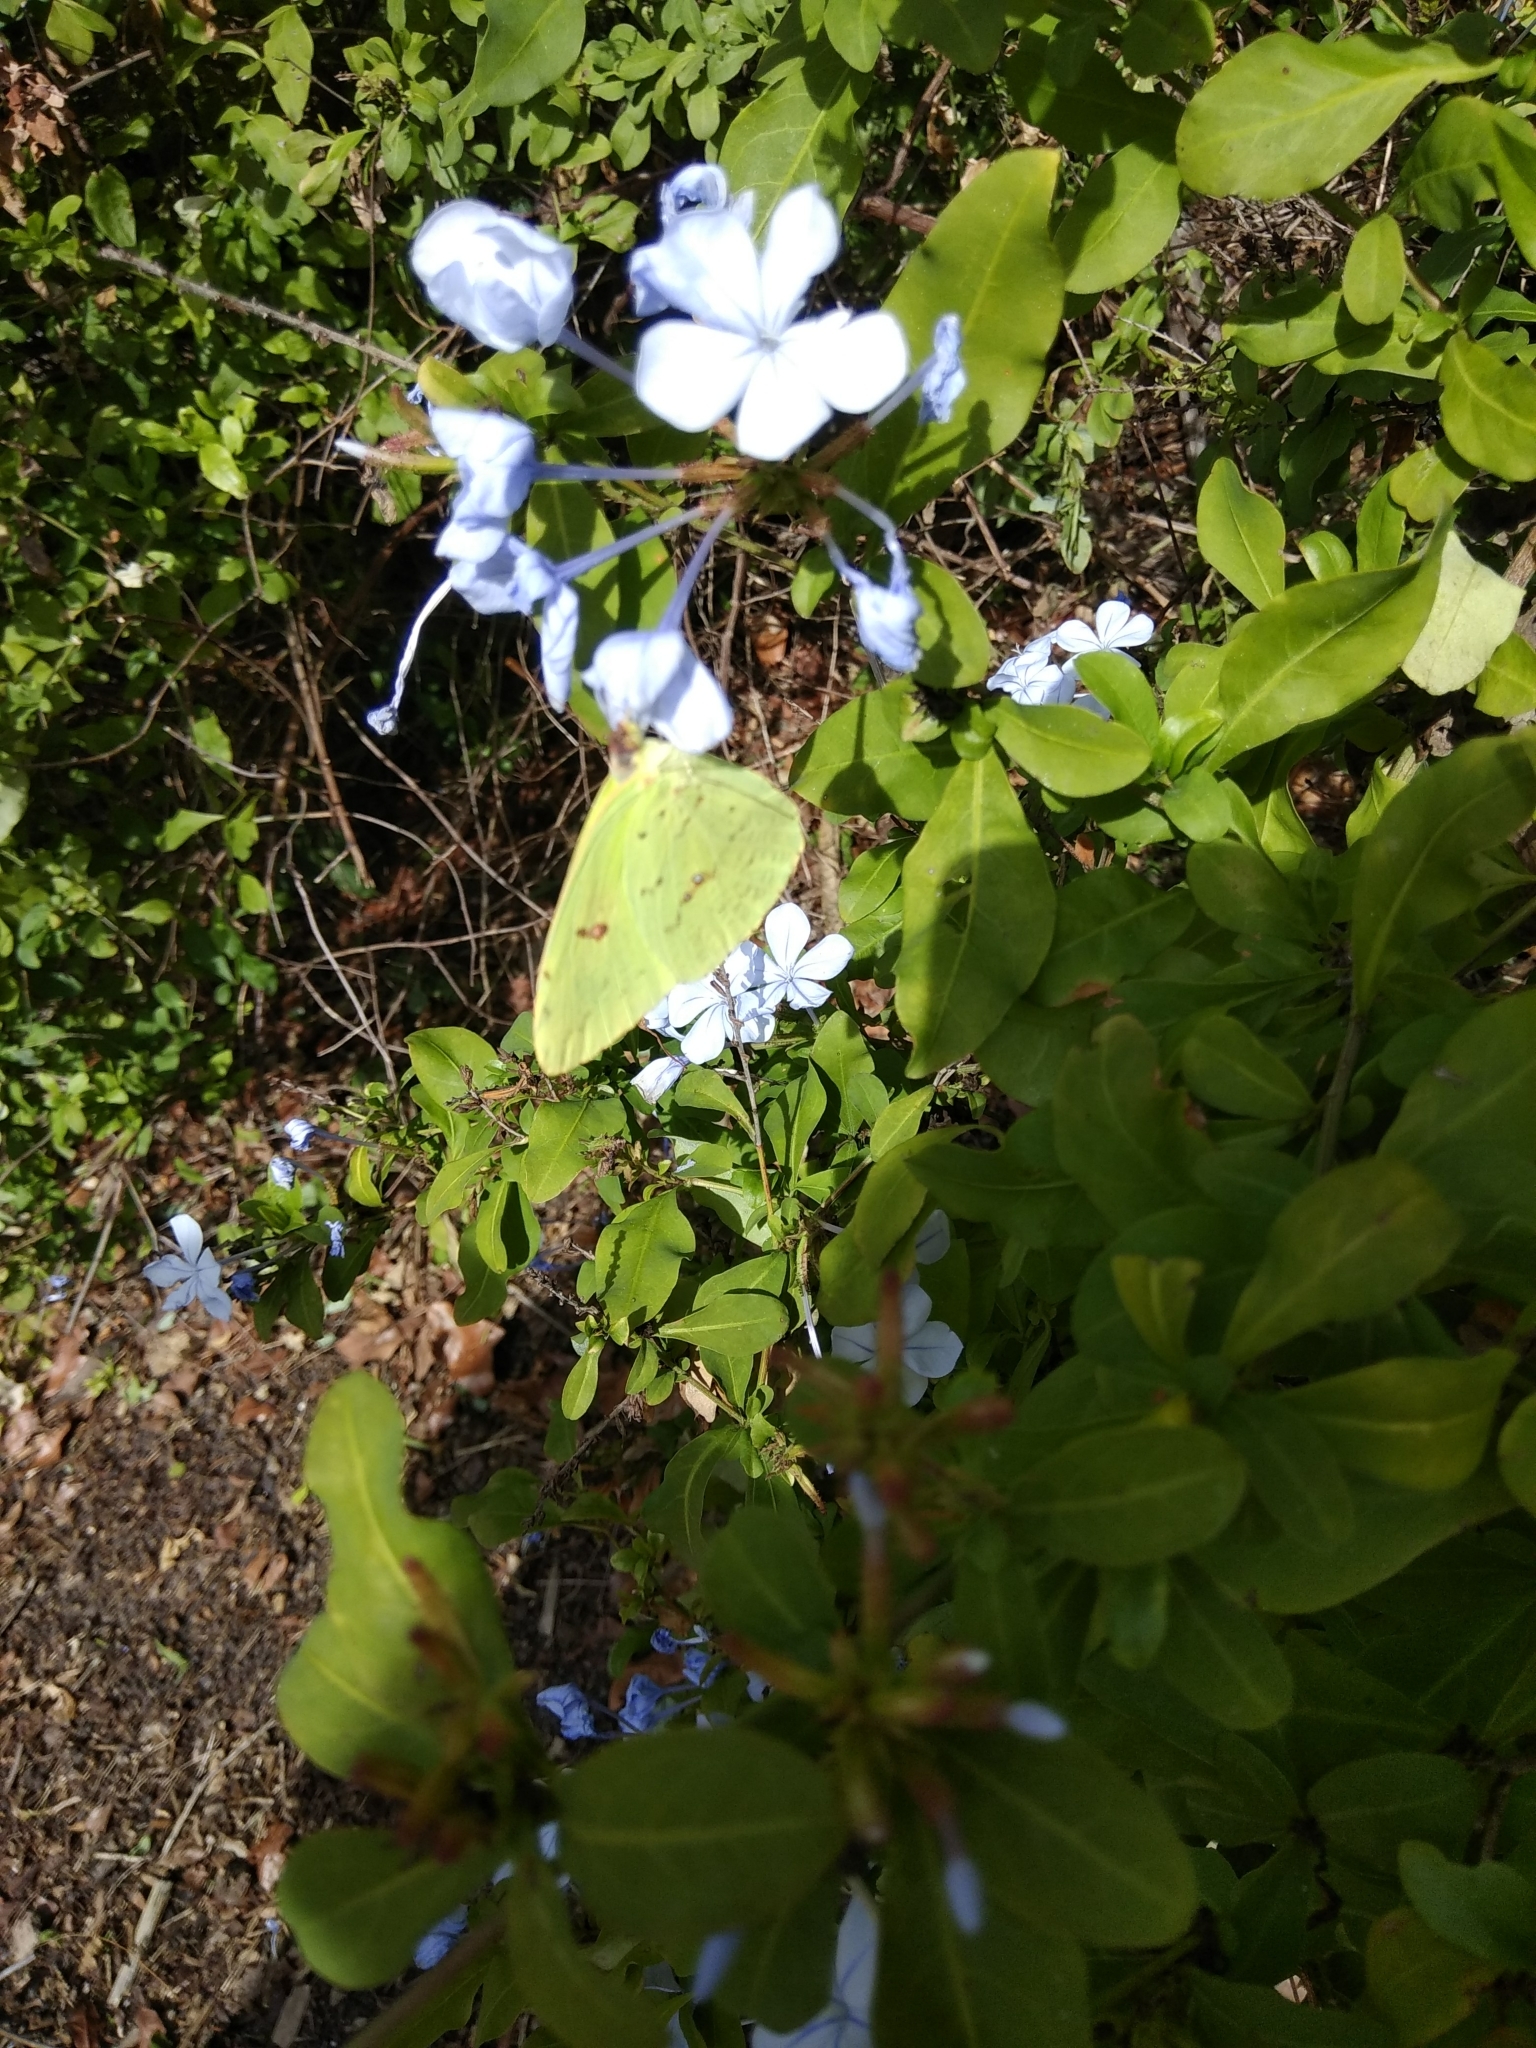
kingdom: Animalia
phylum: Arthropoda
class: Insecta
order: Lepidoptera
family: Pieridae
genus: Phoebis
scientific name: Phoebis sennae
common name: Cloudless sulphur
